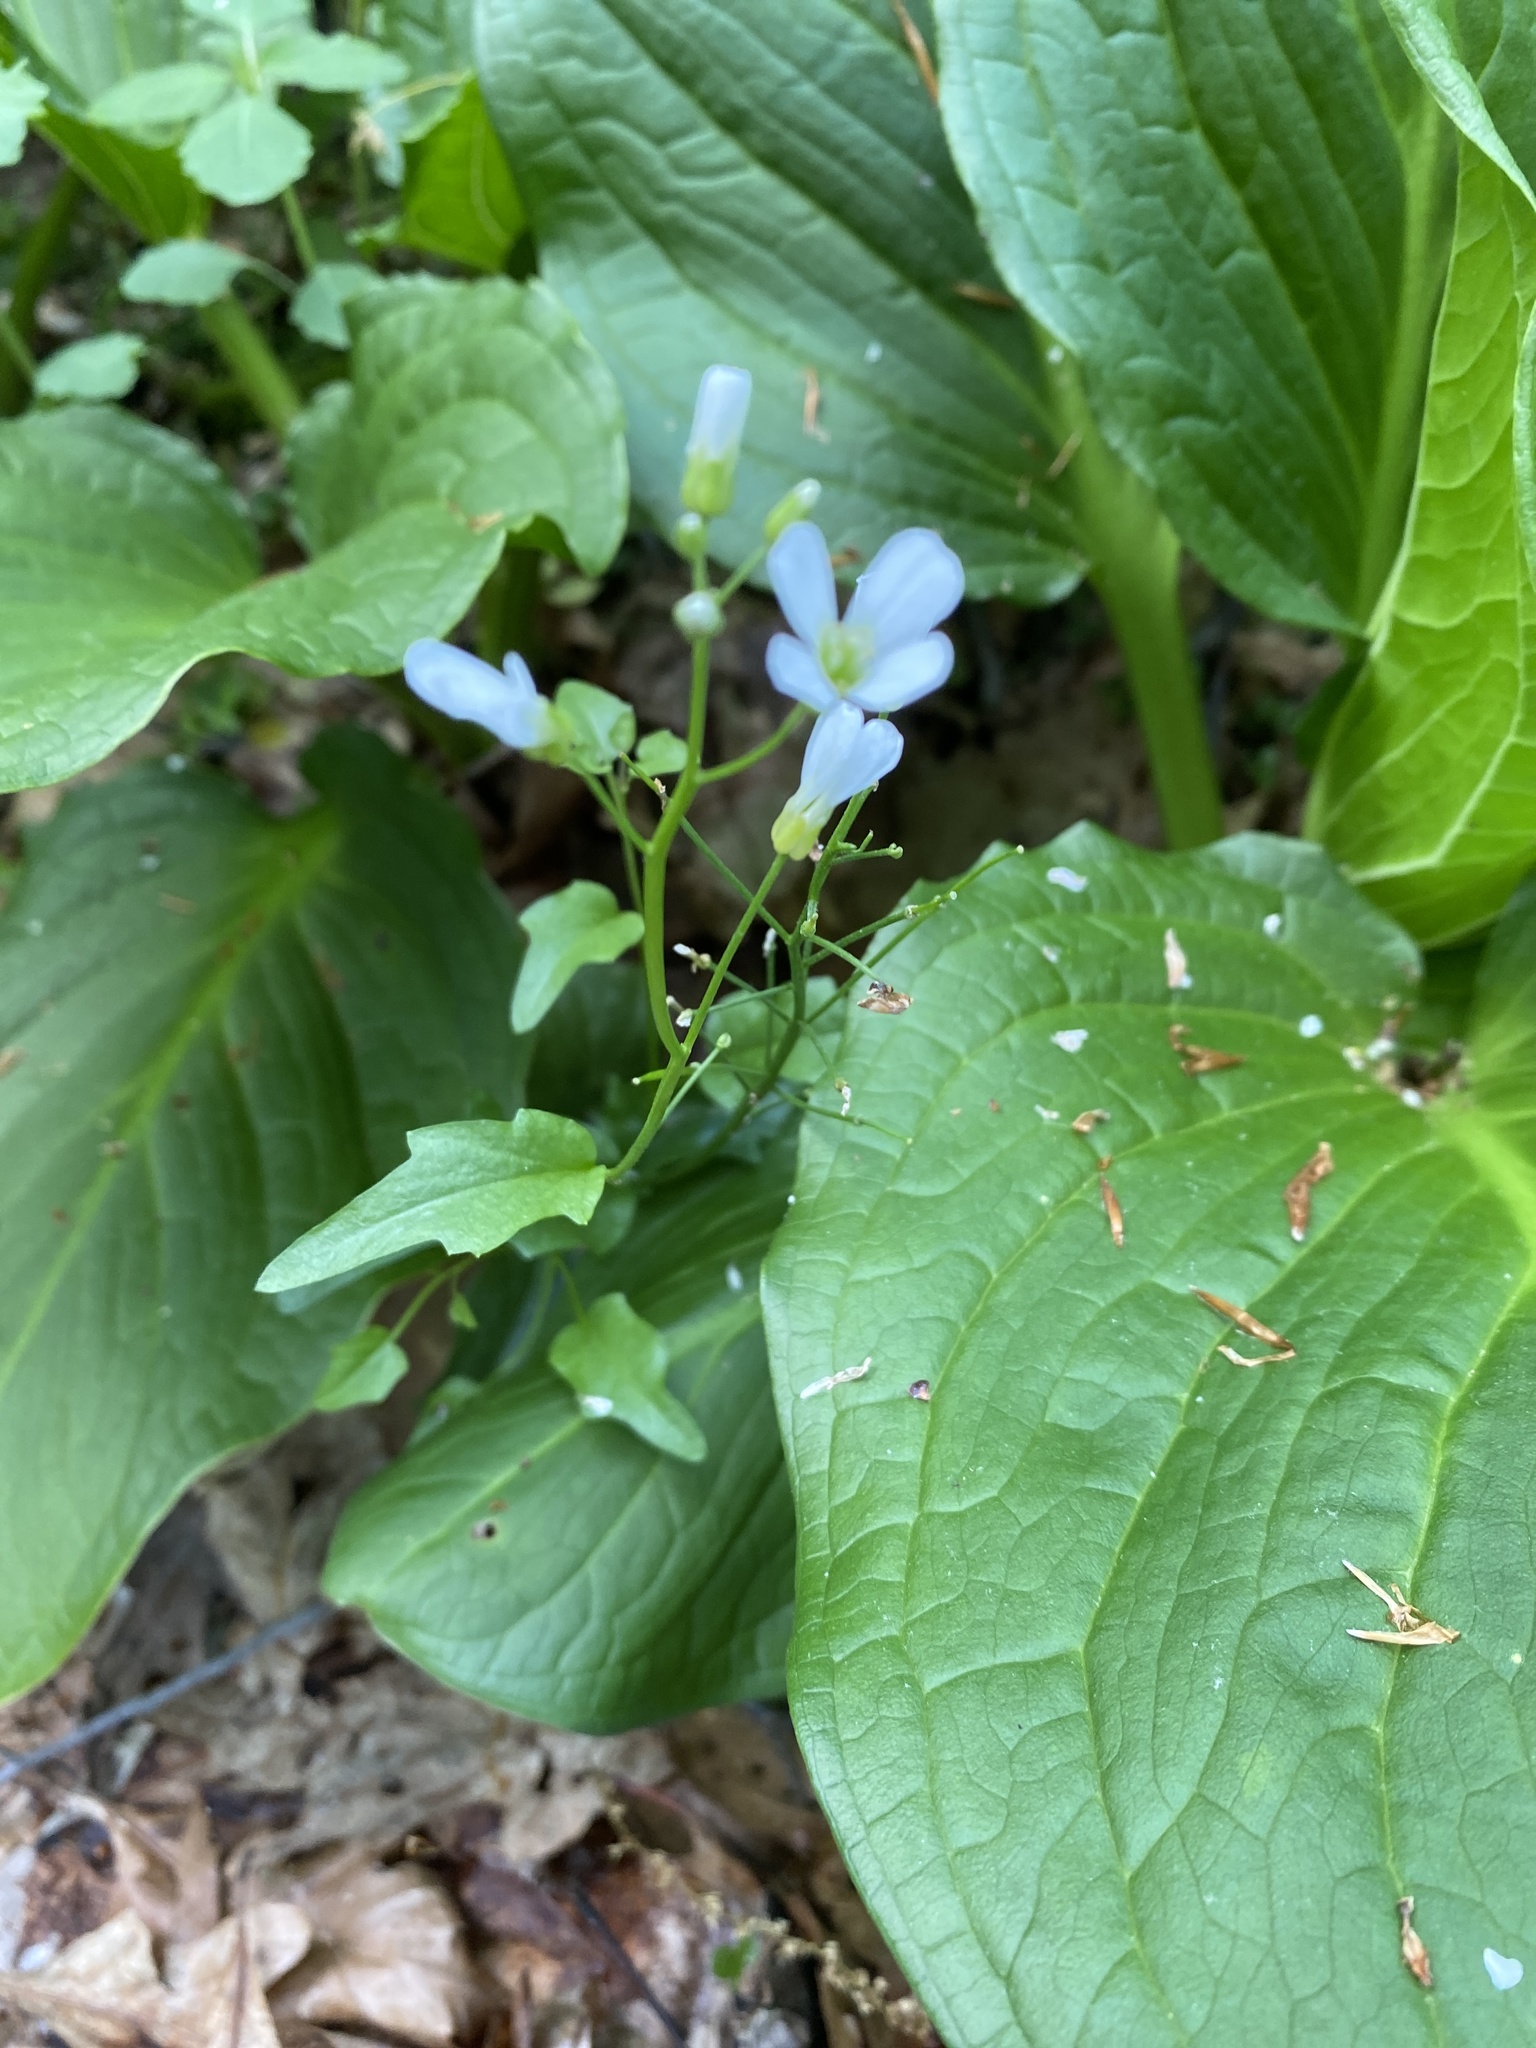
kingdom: Plantae
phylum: Tracheophyta
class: Magnoliopsida
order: Brassicales
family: Brassicaceae
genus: Cardamine
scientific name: Cardamine bulbosa
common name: Spring cress
